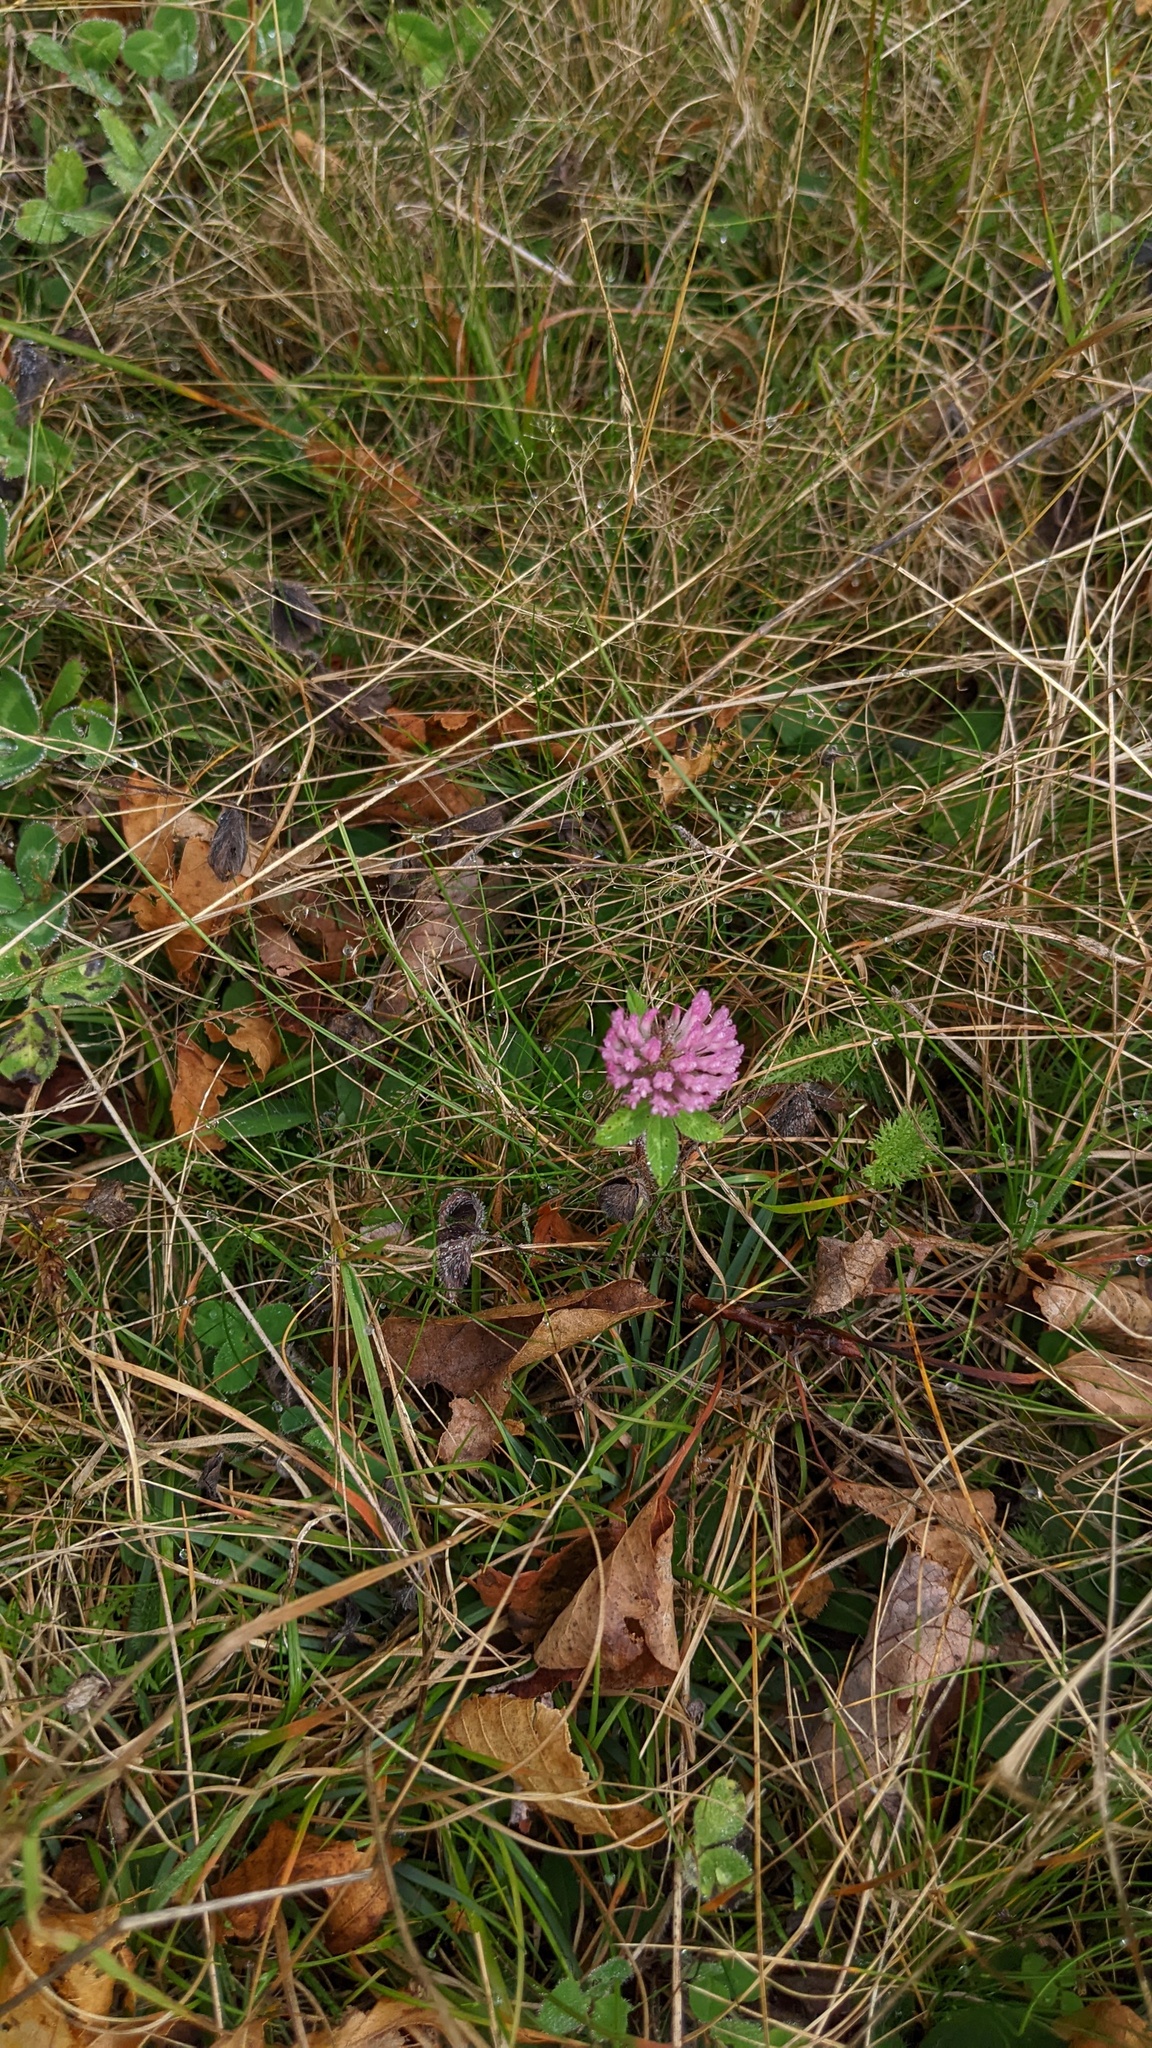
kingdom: Plantae
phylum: Tracheophyta
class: Magnoliopsida
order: Fabales
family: Fabaceae
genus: Trifolium
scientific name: Trifolium pratense
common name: Red clover
